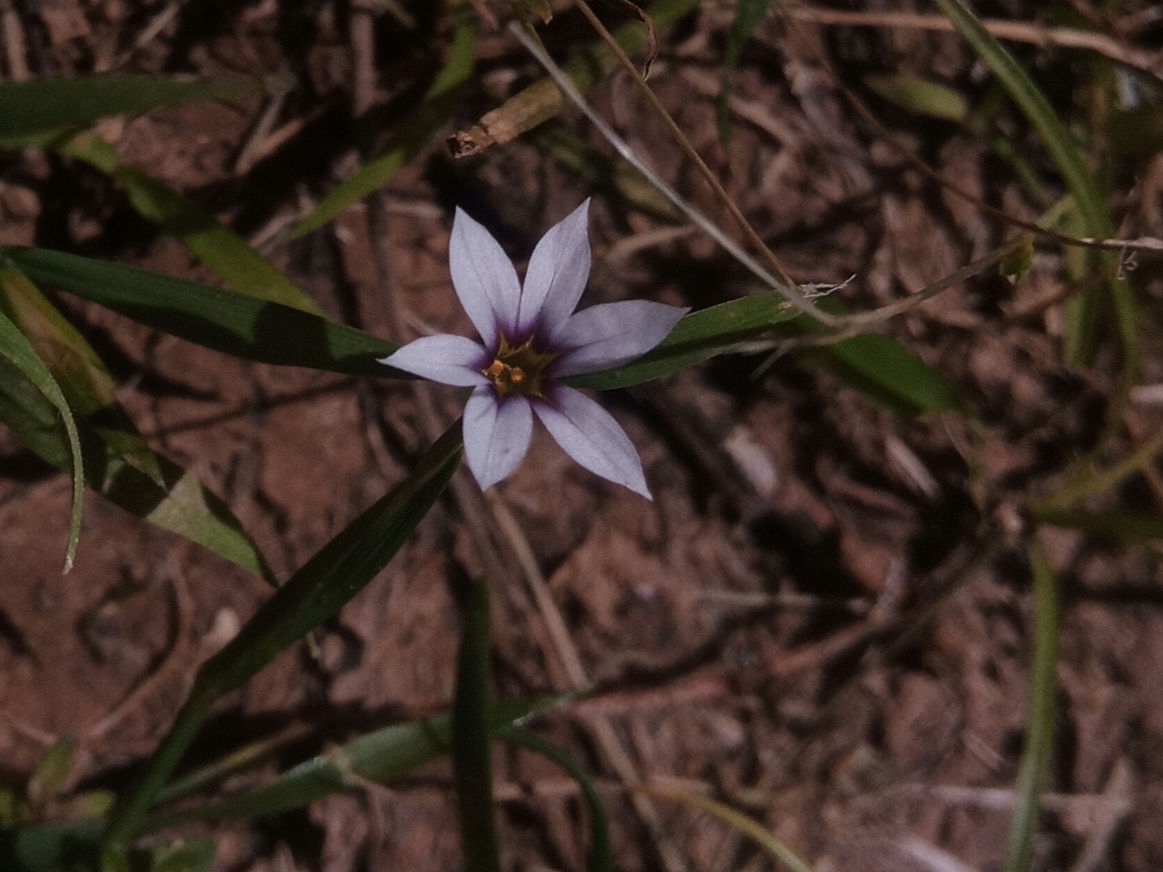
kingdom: Plantae
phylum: Tracheophyta
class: Liliopsida
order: Asparagales
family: Iridaceae
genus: Sisyrinchium
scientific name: Sisyrinchium micranthum
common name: Bermuda pigroot
